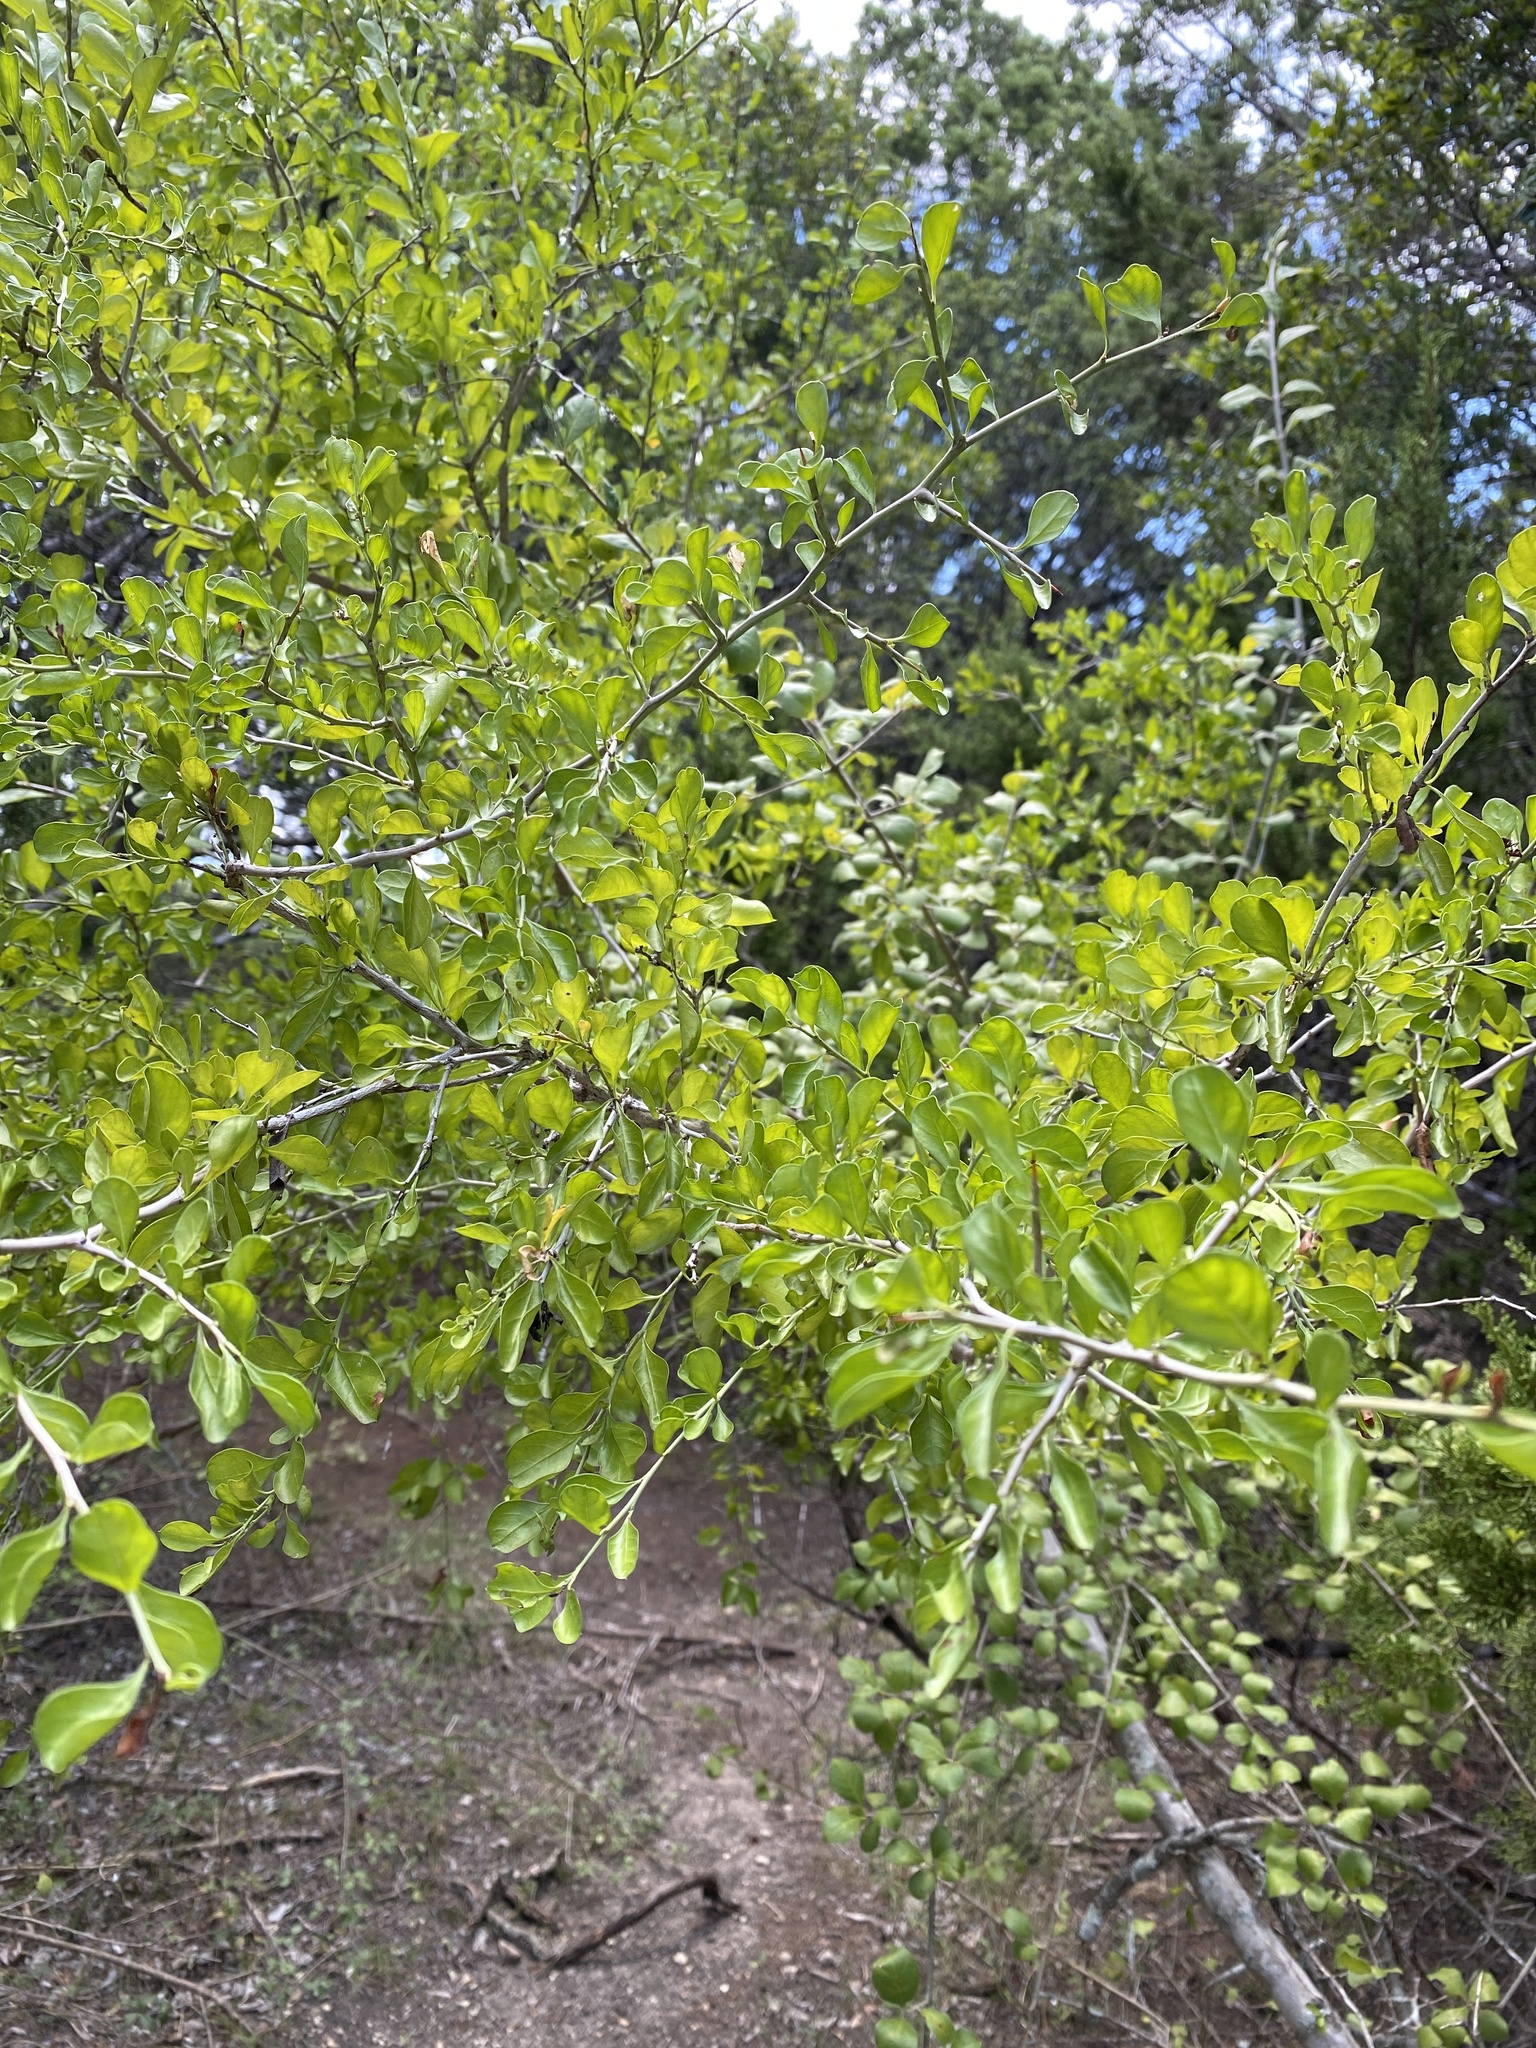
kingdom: Plantae
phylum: Tracheophyta
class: Magnoliopsida
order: Rosales
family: Rhamnaceae
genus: Condalia
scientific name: Condalia hookeri
